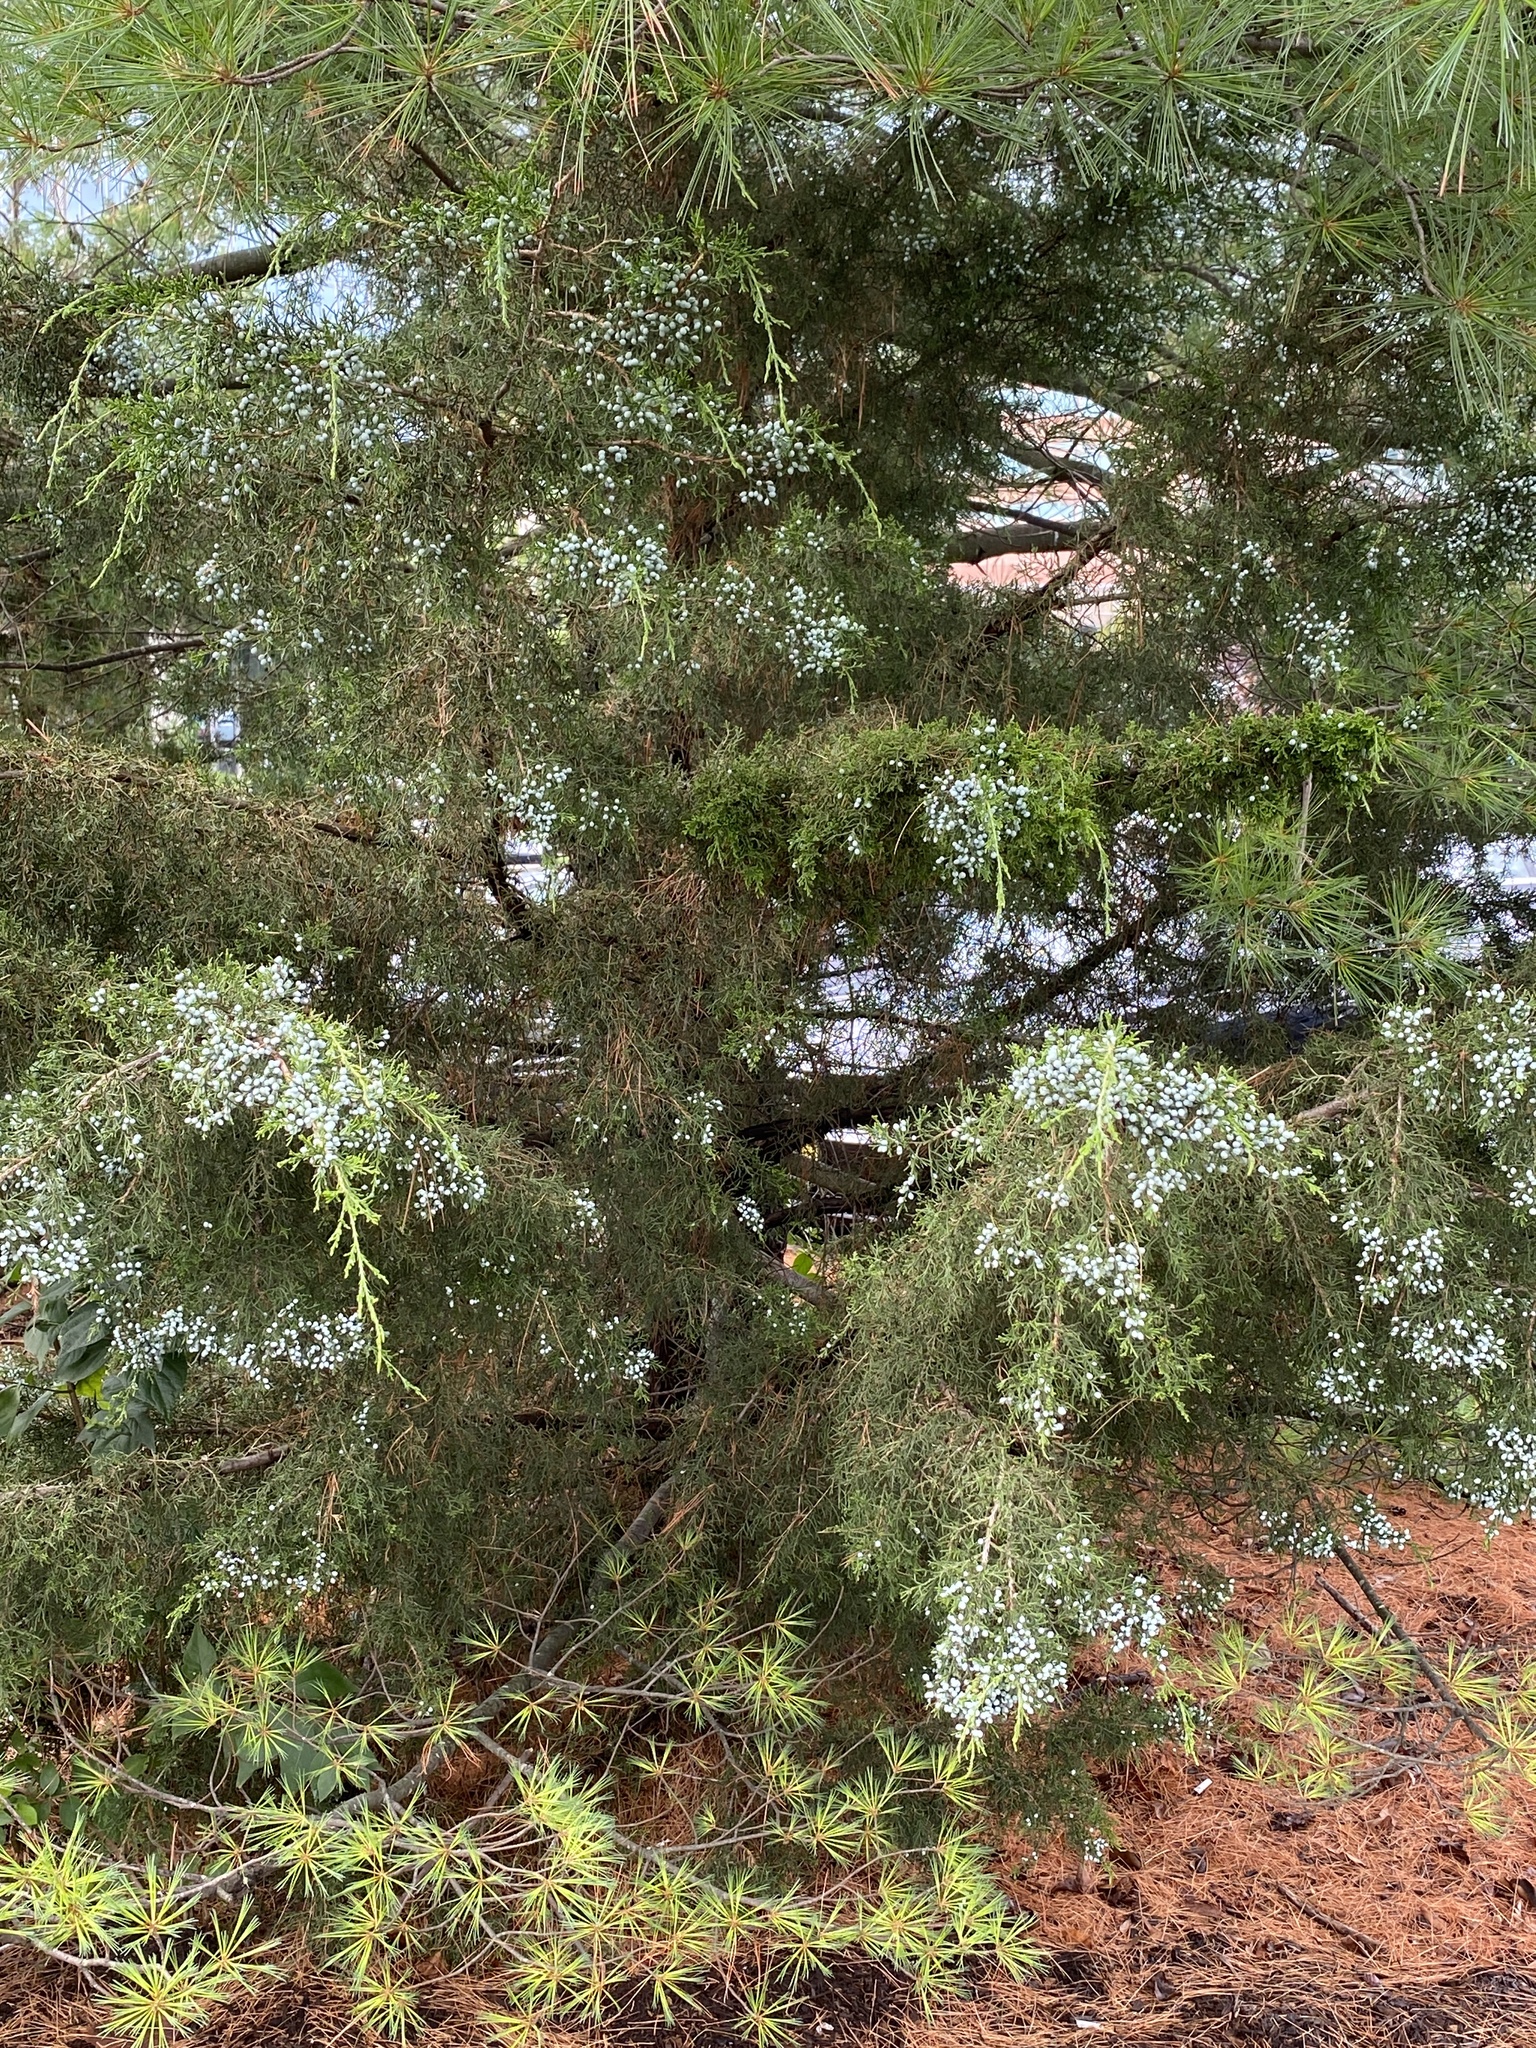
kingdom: Plantae
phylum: Tracheophyta
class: Pinopsida
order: Pinales
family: Cupressaceae
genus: Juniperus
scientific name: Juniperus virginiana
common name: Red juniper
